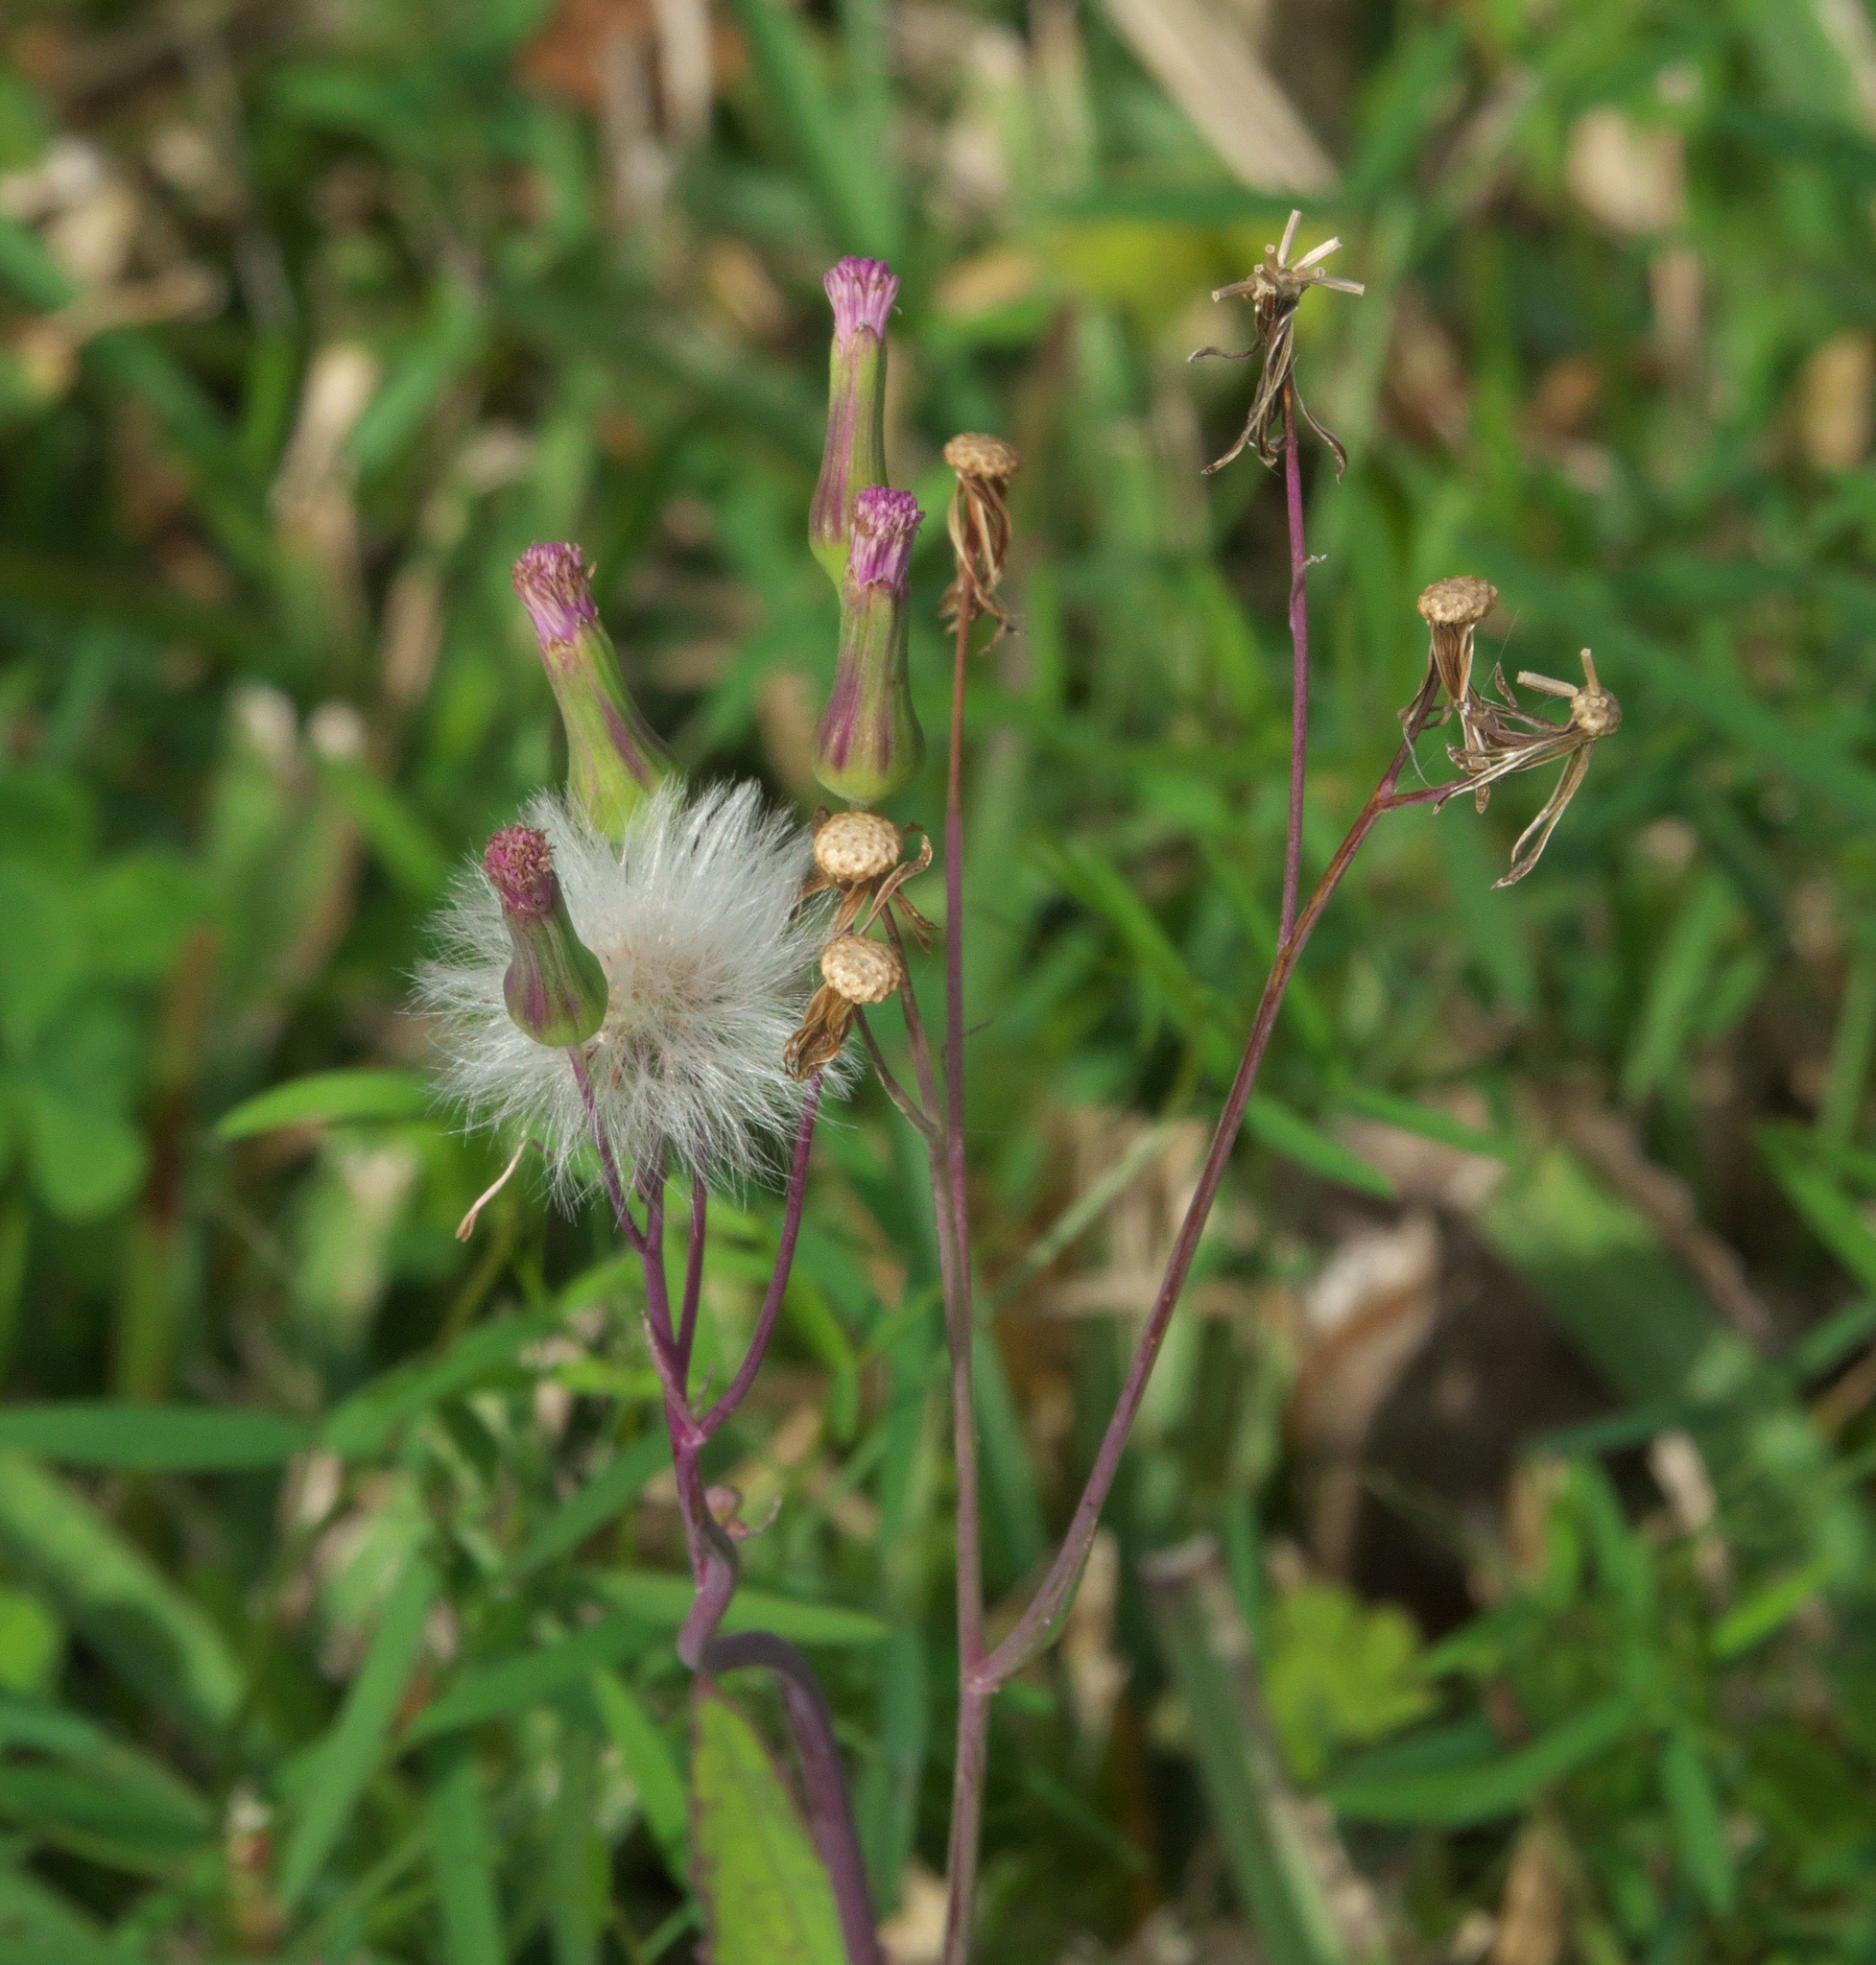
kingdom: Plantae
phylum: Tracheophyta
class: Magnoliopsida
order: Asterales
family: Asteraceae
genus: Emilia
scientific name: Emilia sonchifolia
